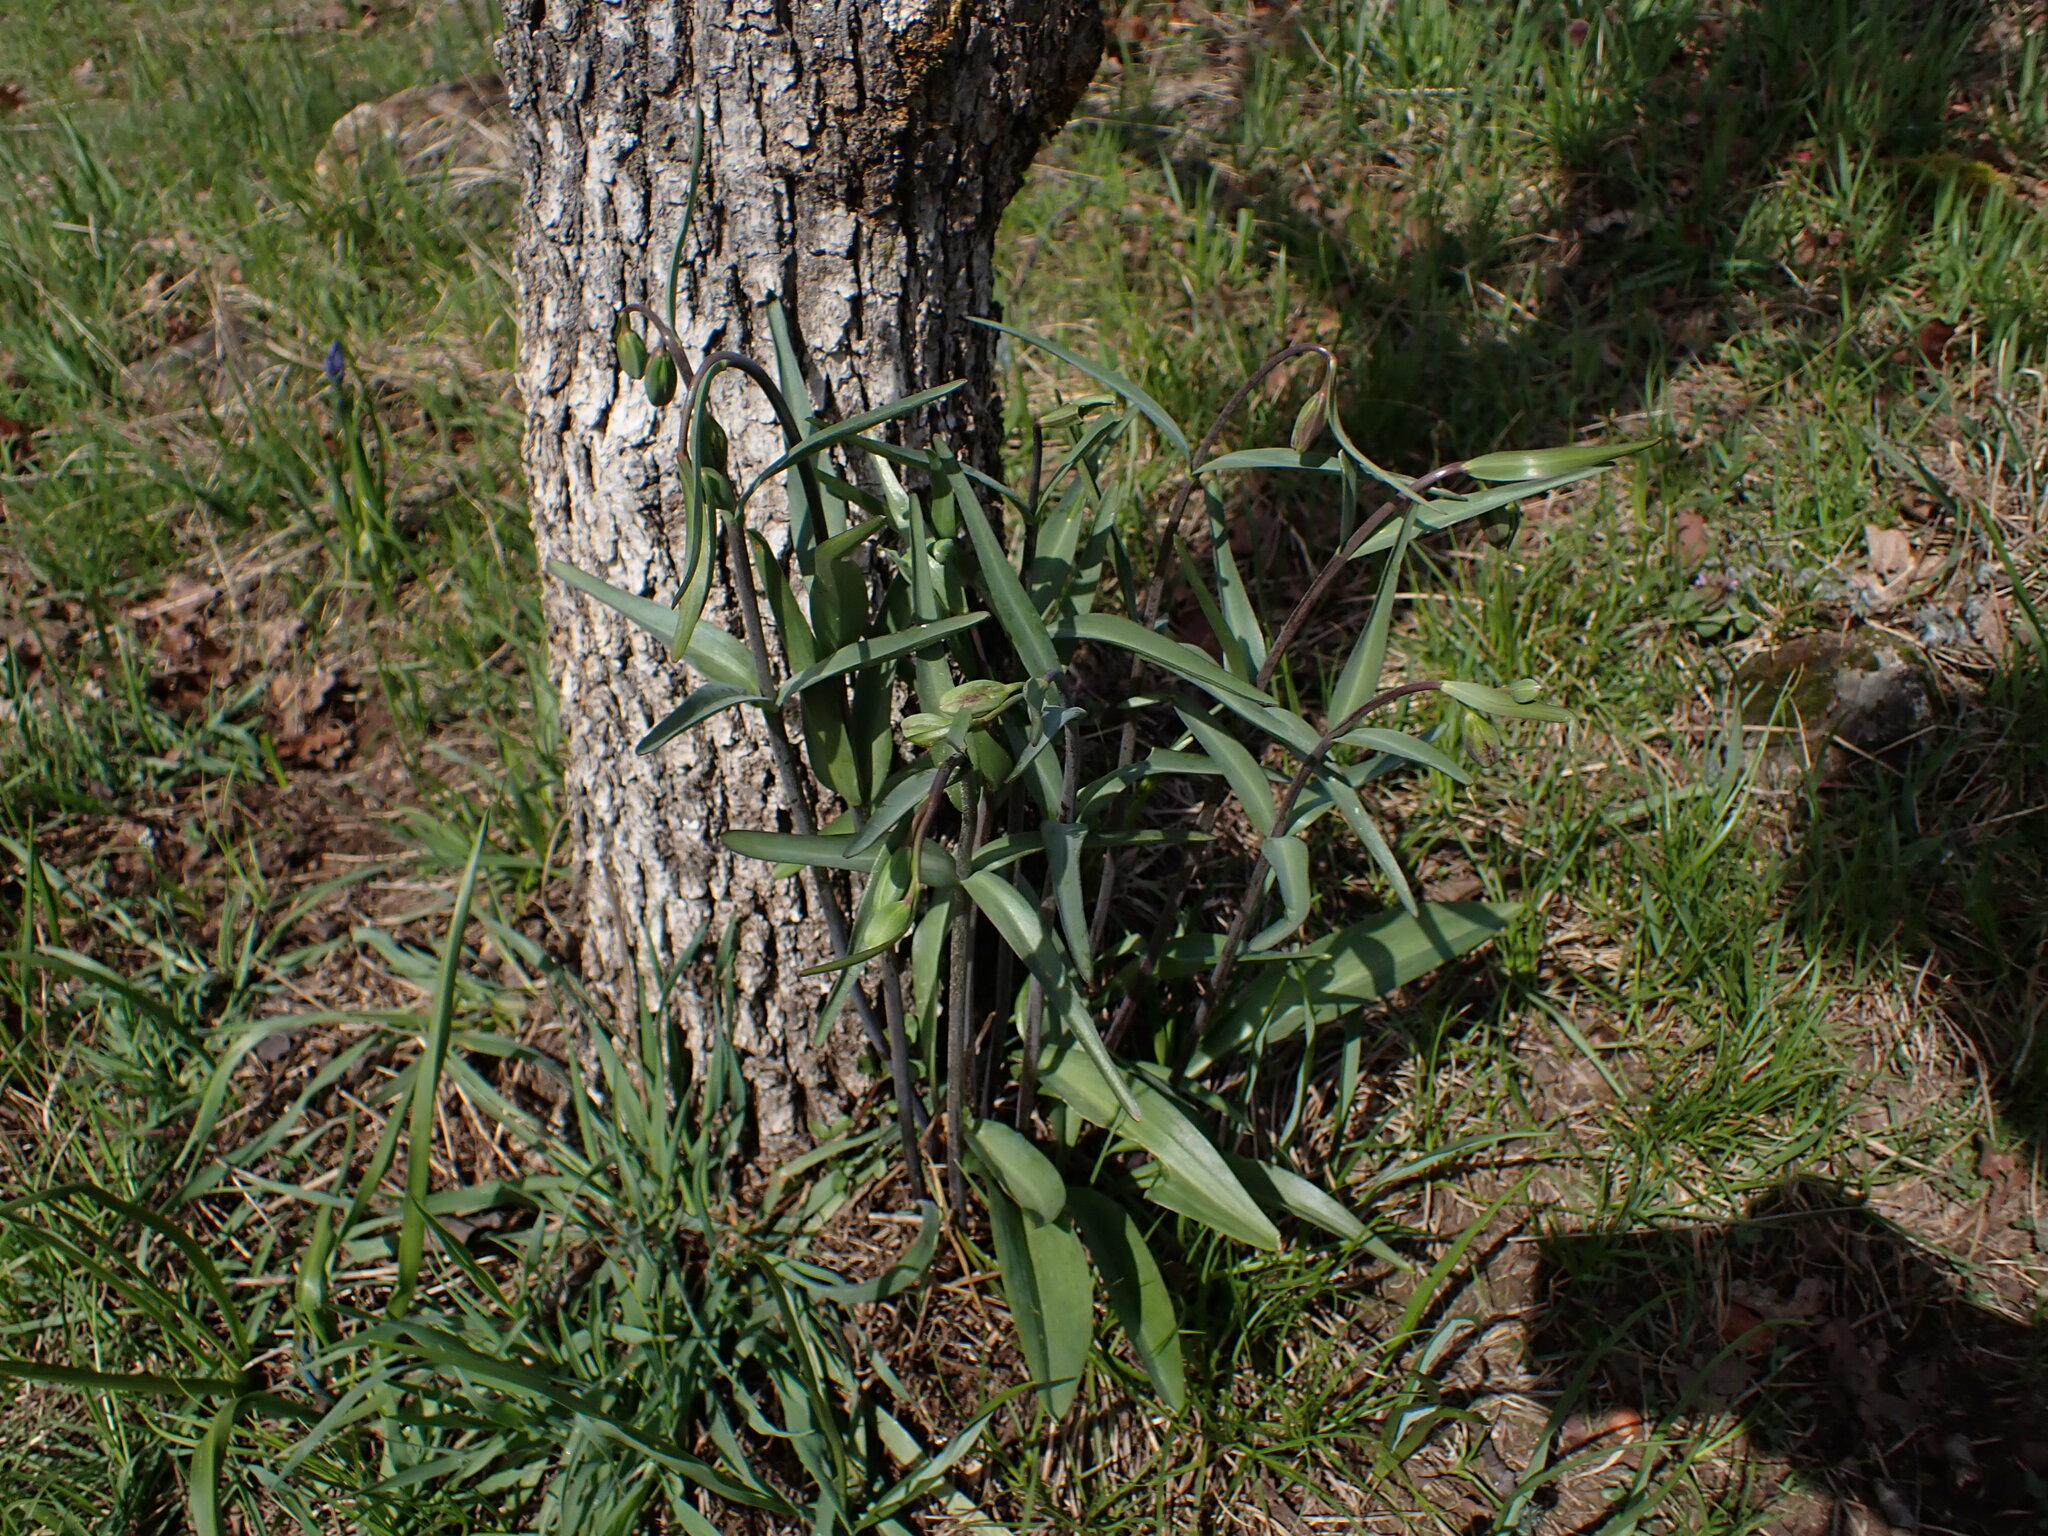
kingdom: Plantae
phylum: Tracheophyta
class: Liliopsida
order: Liliales
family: Liliaceae
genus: Fritillaria
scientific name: Fritillaria affinis
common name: Ojai fritillary
